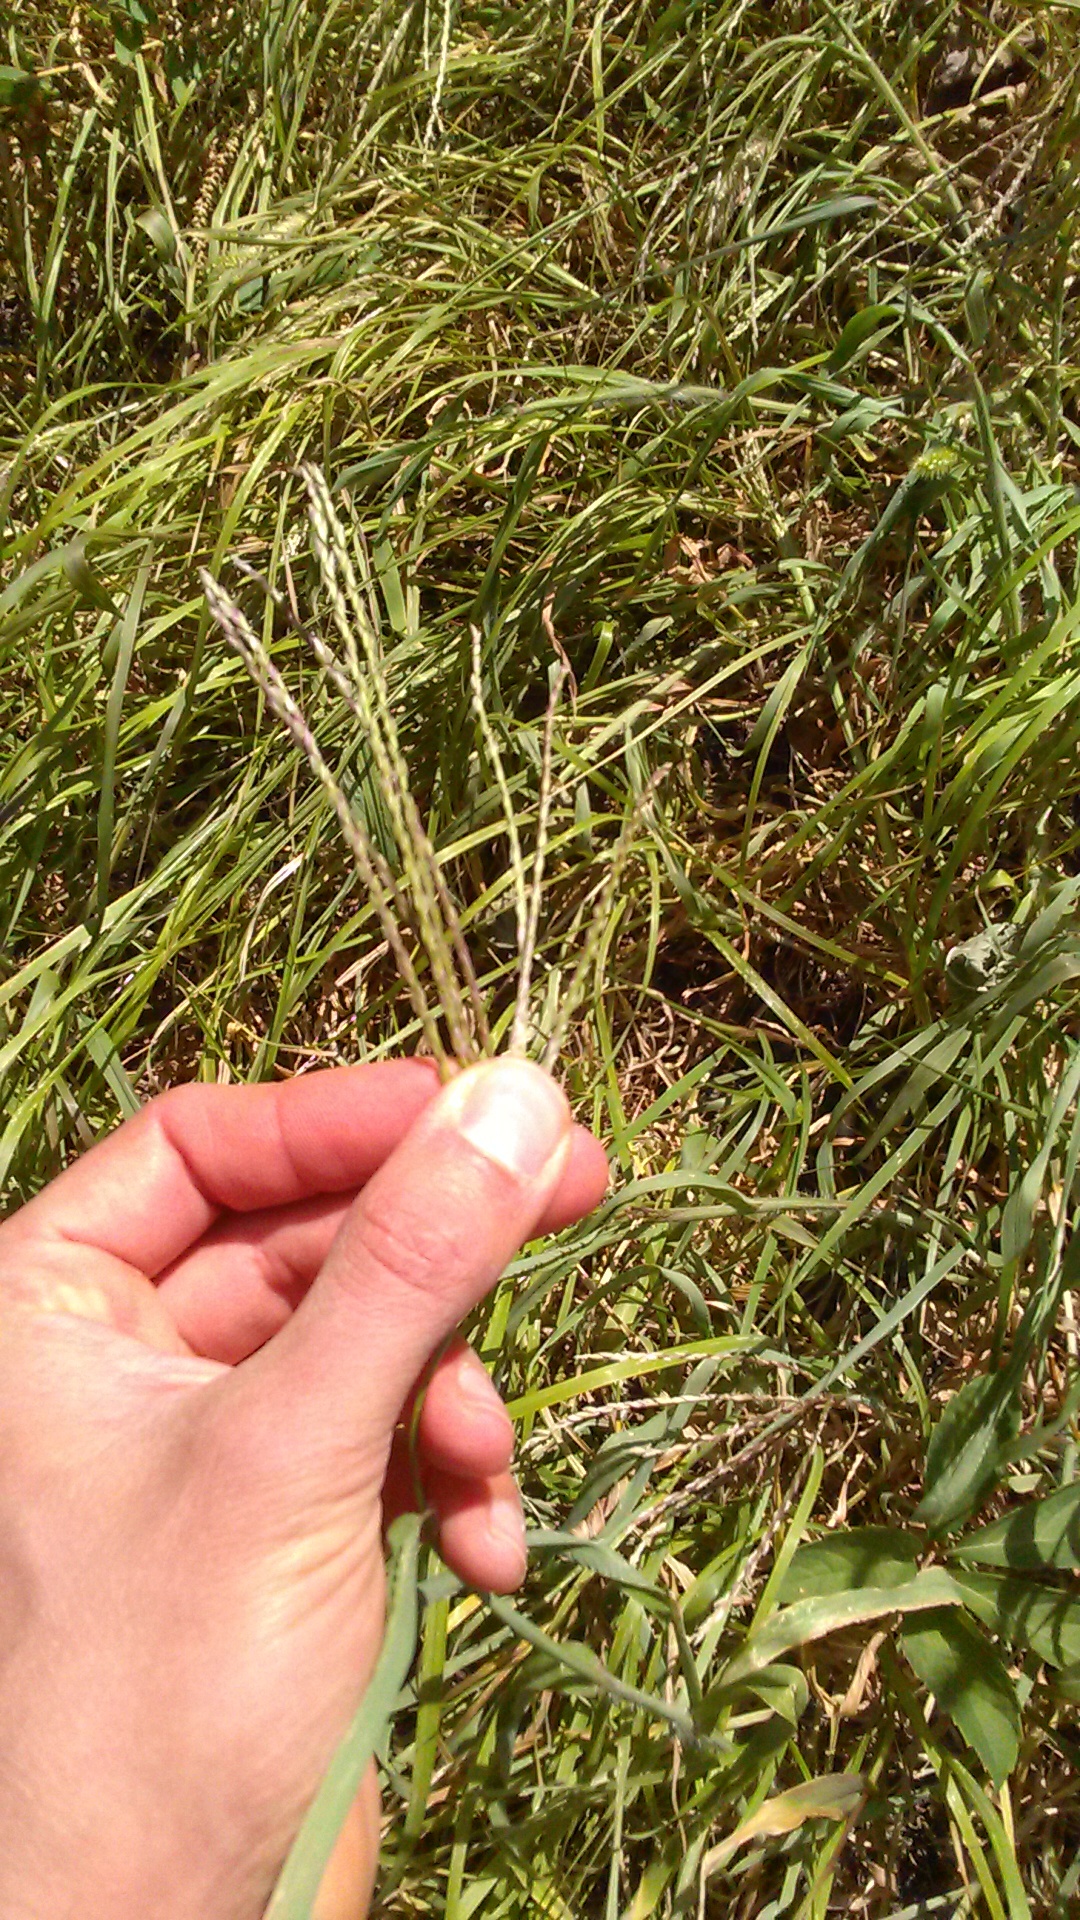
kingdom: Plantae
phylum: Tracheophyta
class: Liliopsida
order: Poales
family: Poaceae
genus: Digitaria
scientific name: Digitaria sanguinalis
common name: Hairy crabgrass
